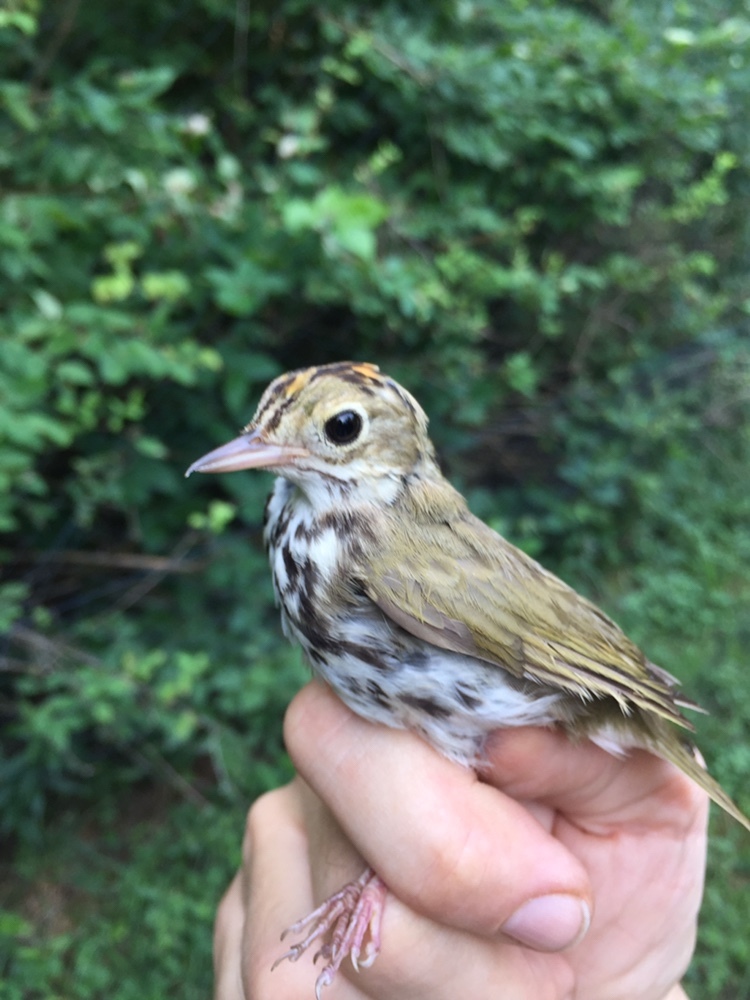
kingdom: Animalia
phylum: Chordata
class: Aves
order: Passeriformes
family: Parulidae
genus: Seiurus
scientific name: Seiurus aurocapilla
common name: Ovenbird
